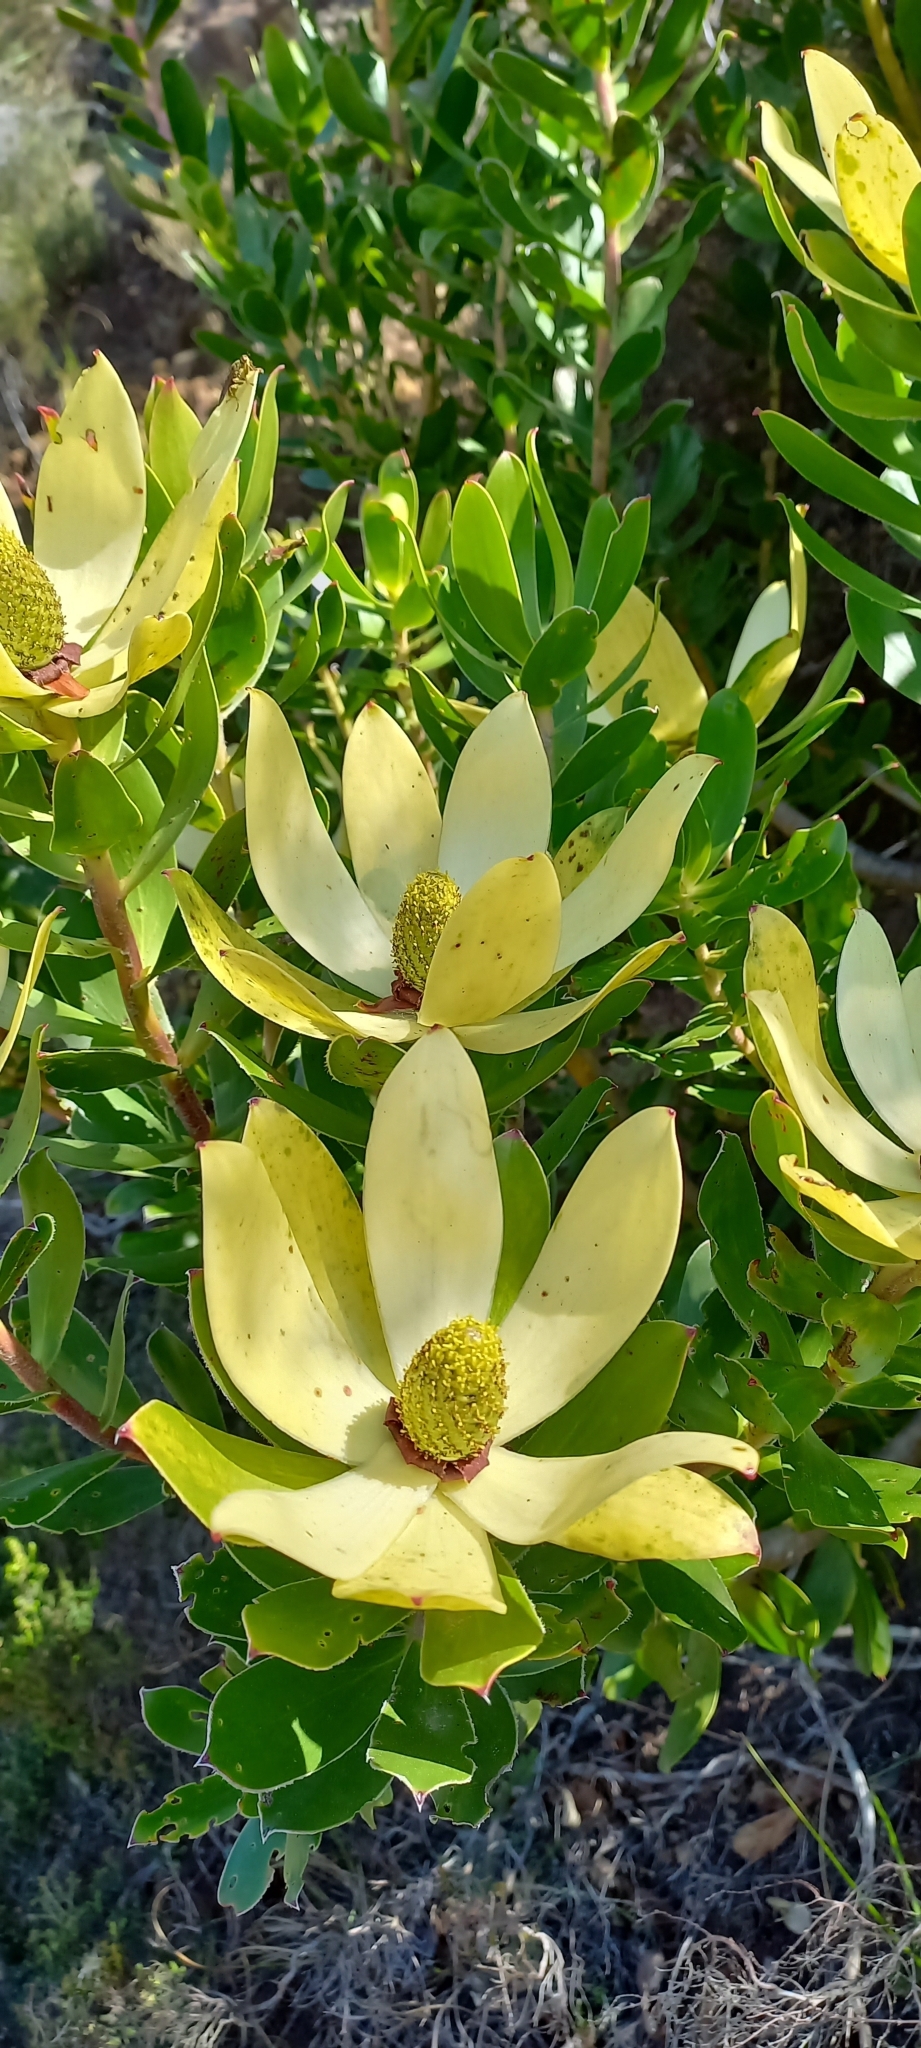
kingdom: Plantae
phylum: Tracheophyta
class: Magnoliopsida
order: Proteales
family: Proteaceae
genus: Leucadendron
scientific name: Leucadendron strobilinum
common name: Mountain rose
